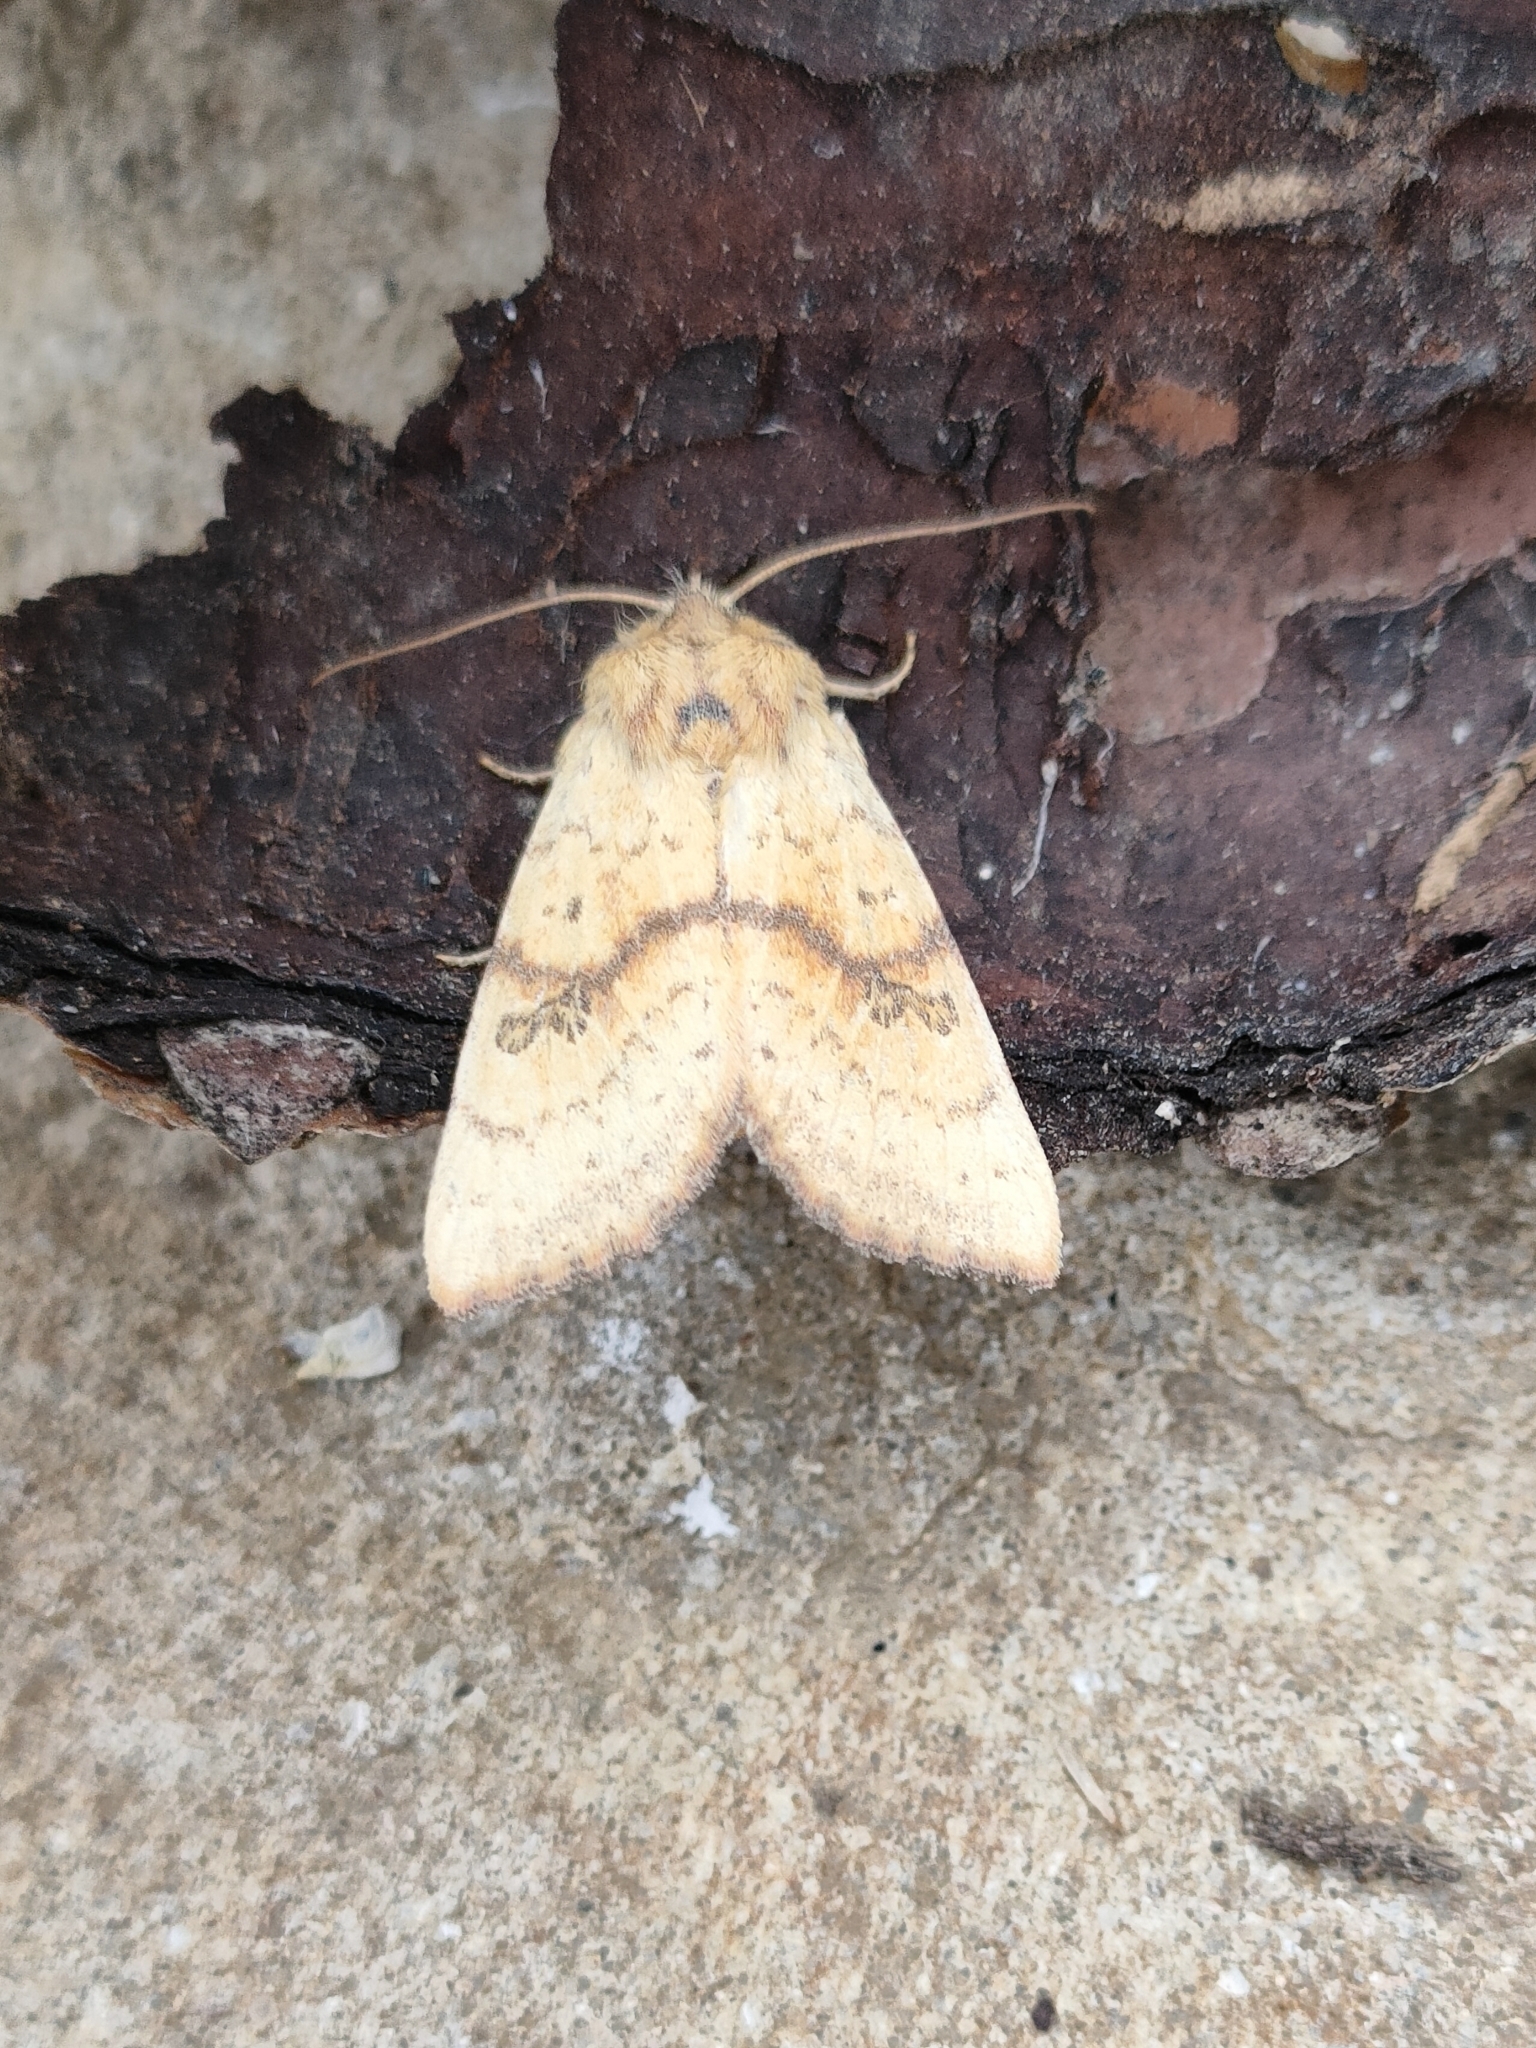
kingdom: Animalia
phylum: Arthropoda
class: Insecta
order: Lepidoptera
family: Noctuidae
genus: Tiliacea
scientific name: Tiliacea sulphurago
